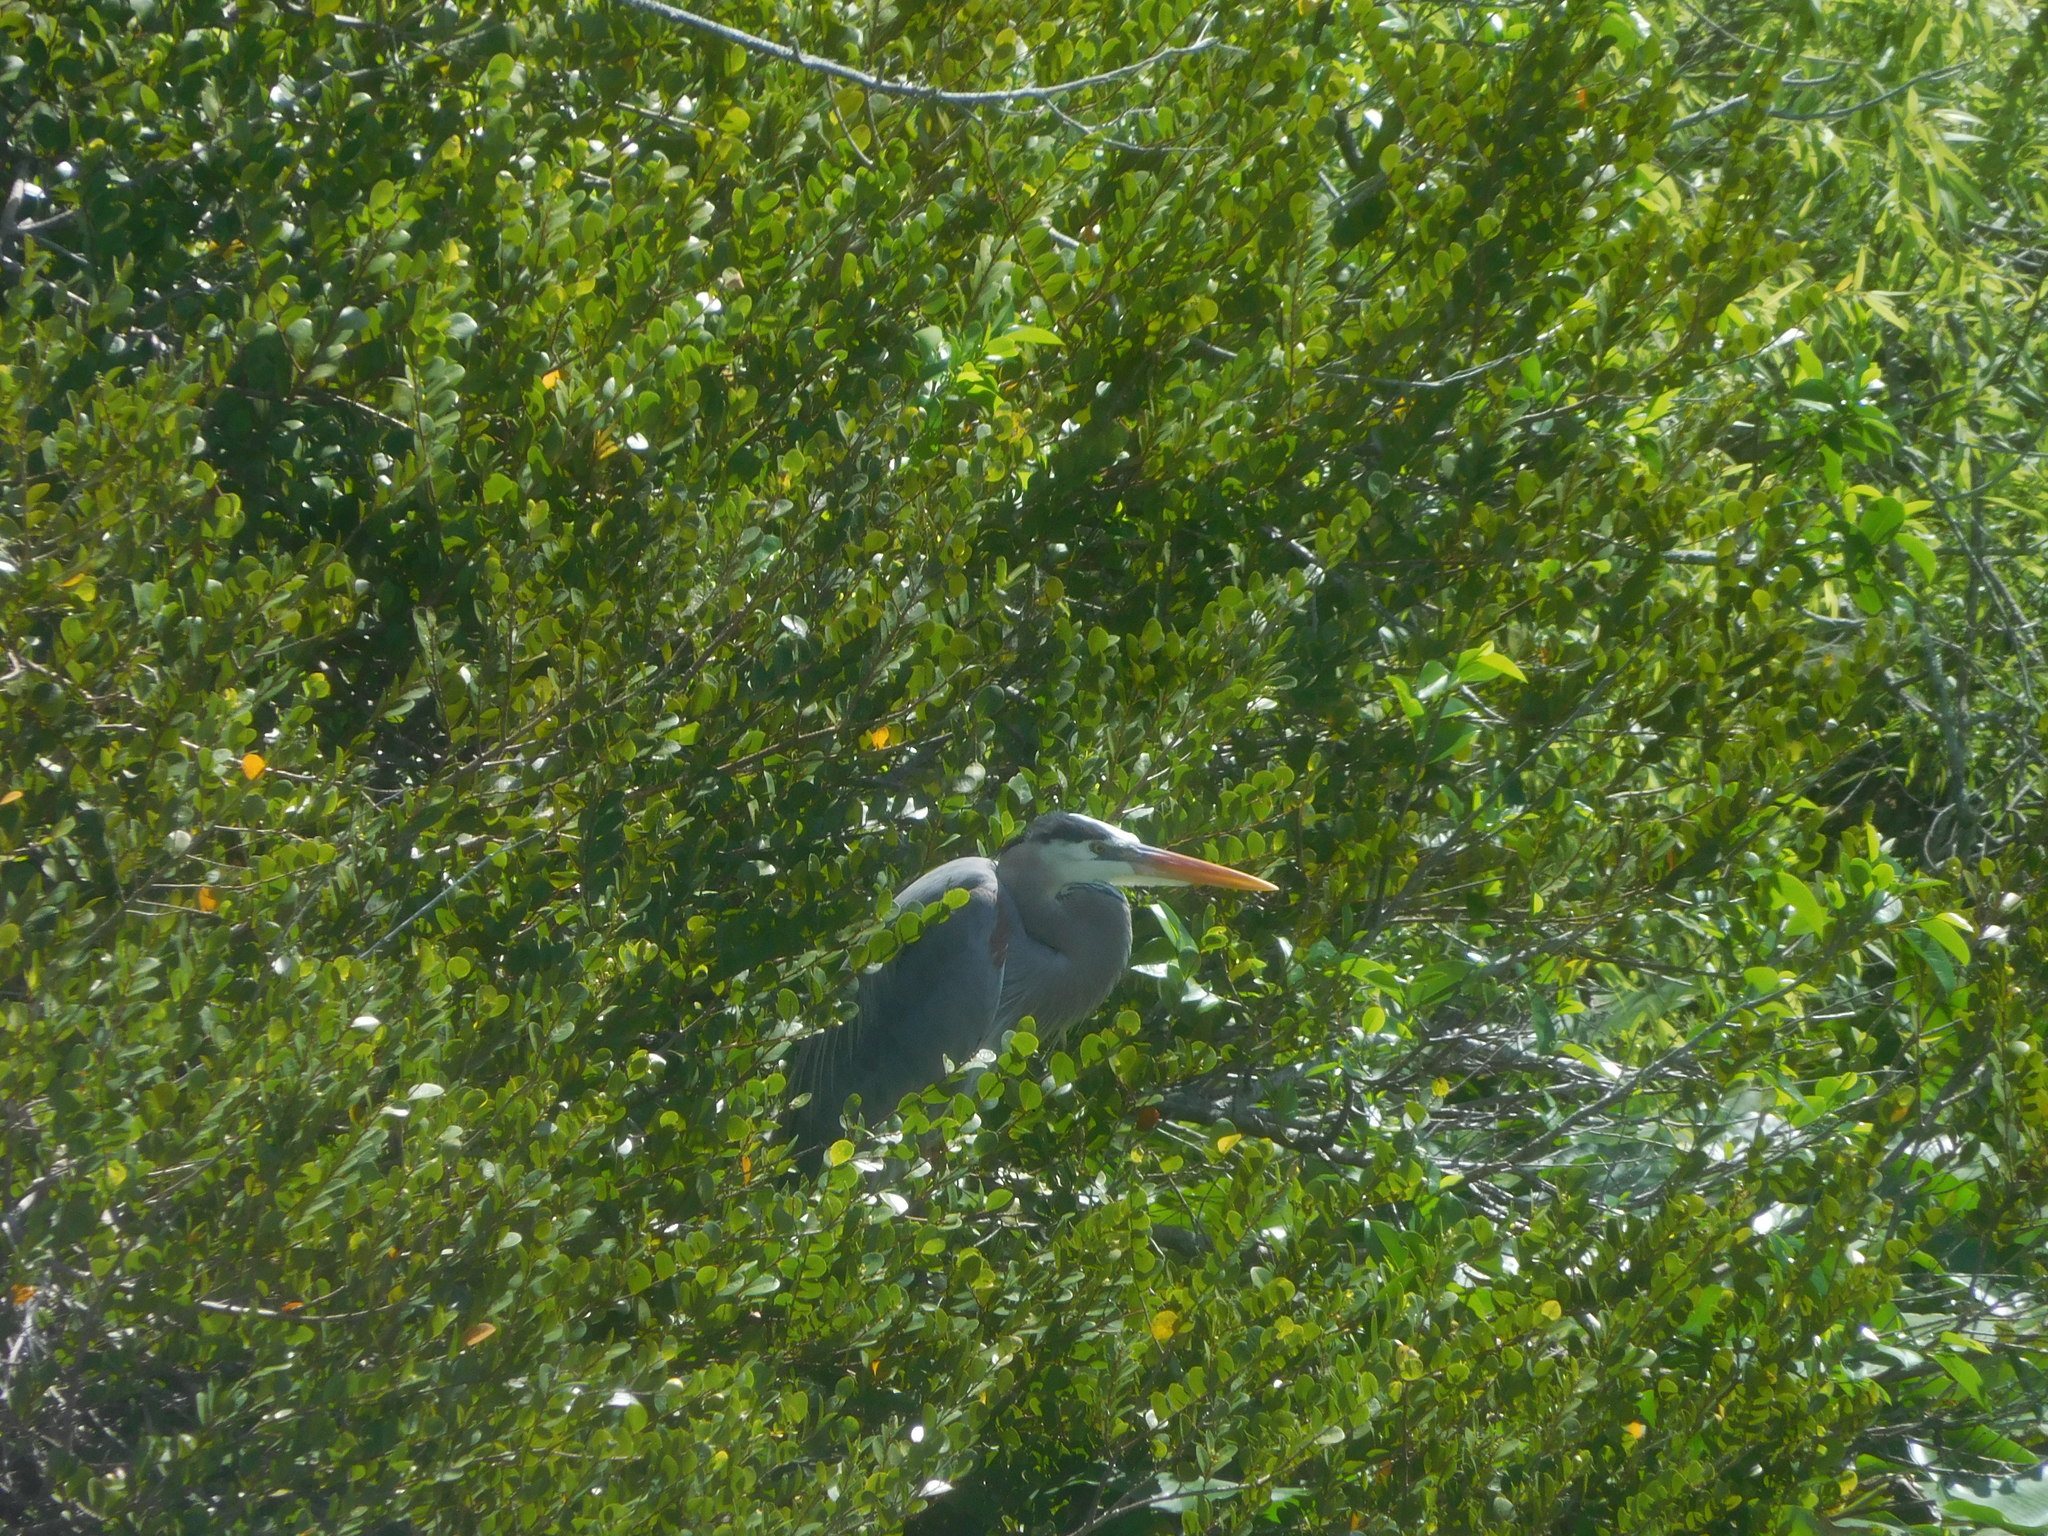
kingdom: Animalia
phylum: Chordata
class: Aves
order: Pelecaniformes
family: Ardeidae
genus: Ardea
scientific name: Ardea herodias
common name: Great blue heron
